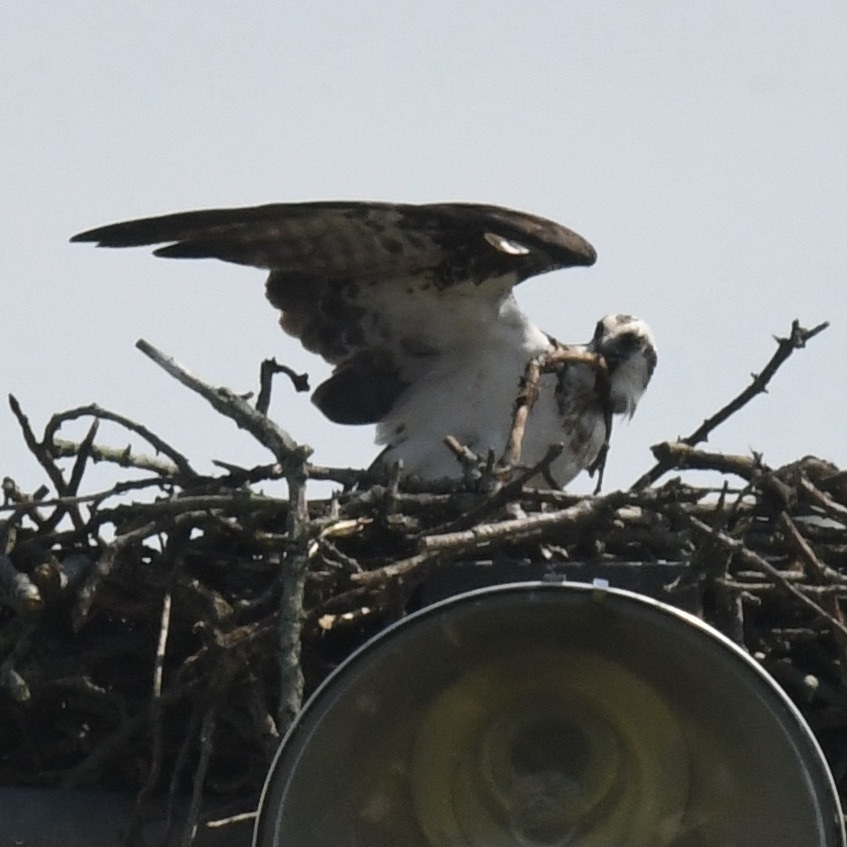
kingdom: Animalia
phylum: Chordata
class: Aves
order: Accipitriformes
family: Pandionidae
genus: Pandion
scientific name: Pandion haliaetus
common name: Osprey
